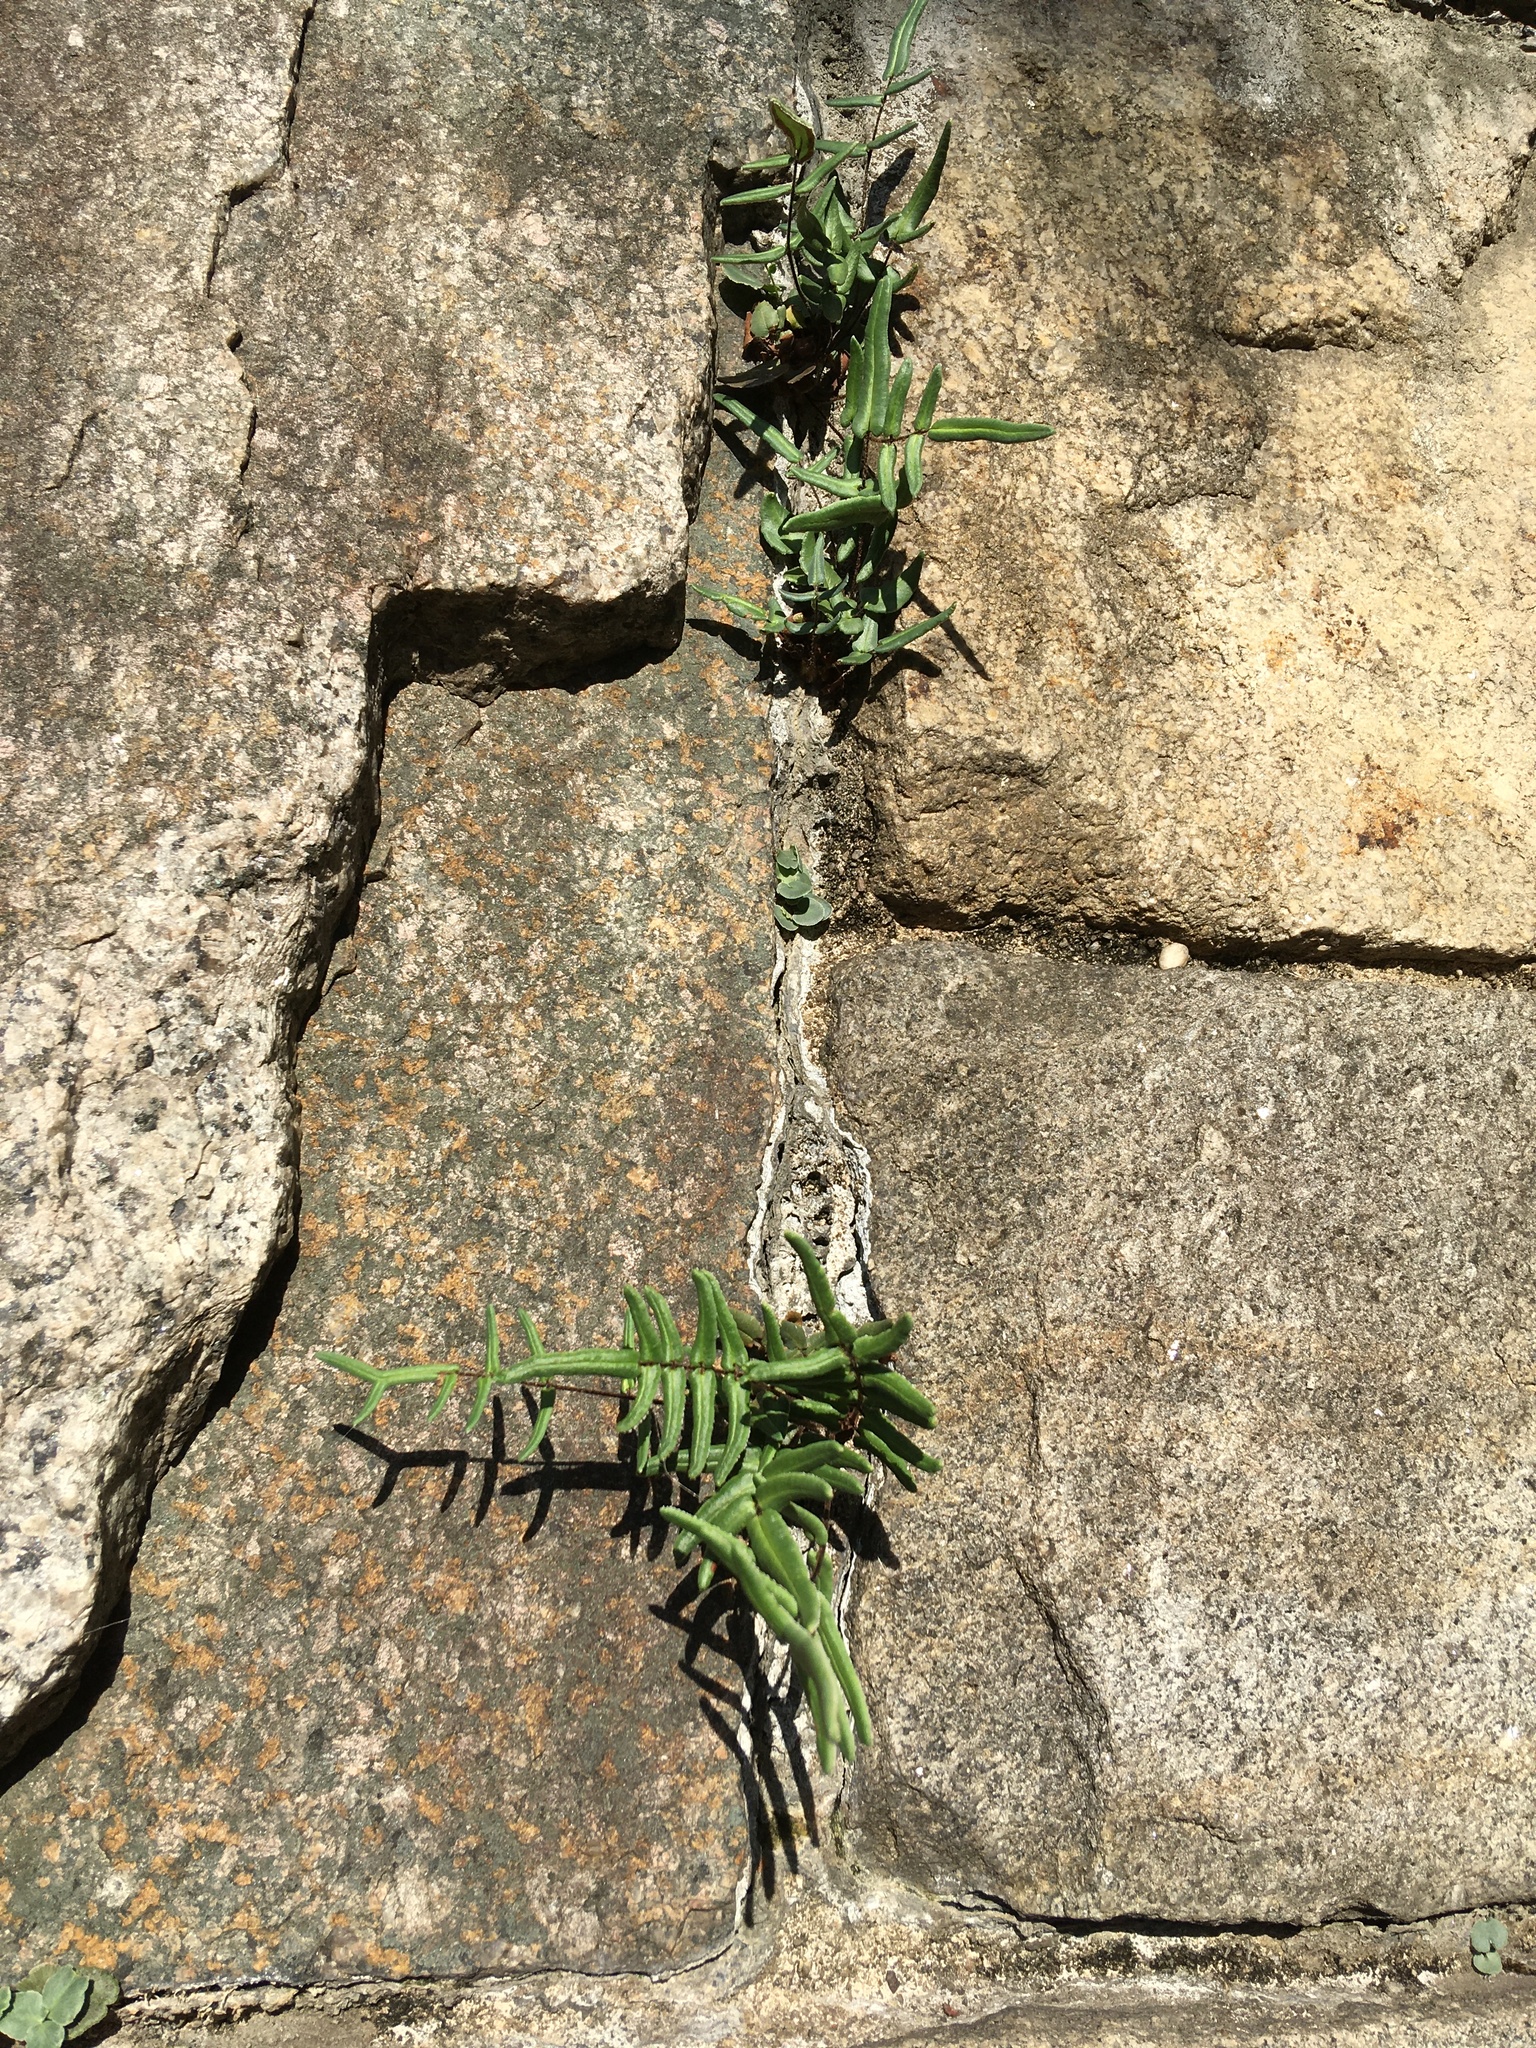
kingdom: Plantae
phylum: Tracheophyta
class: Polypodiopsida
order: Polypodiales
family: Pteridaceae
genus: Pellaea
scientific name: Pellaea atropurpurea
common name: Hairy cliffbrake
